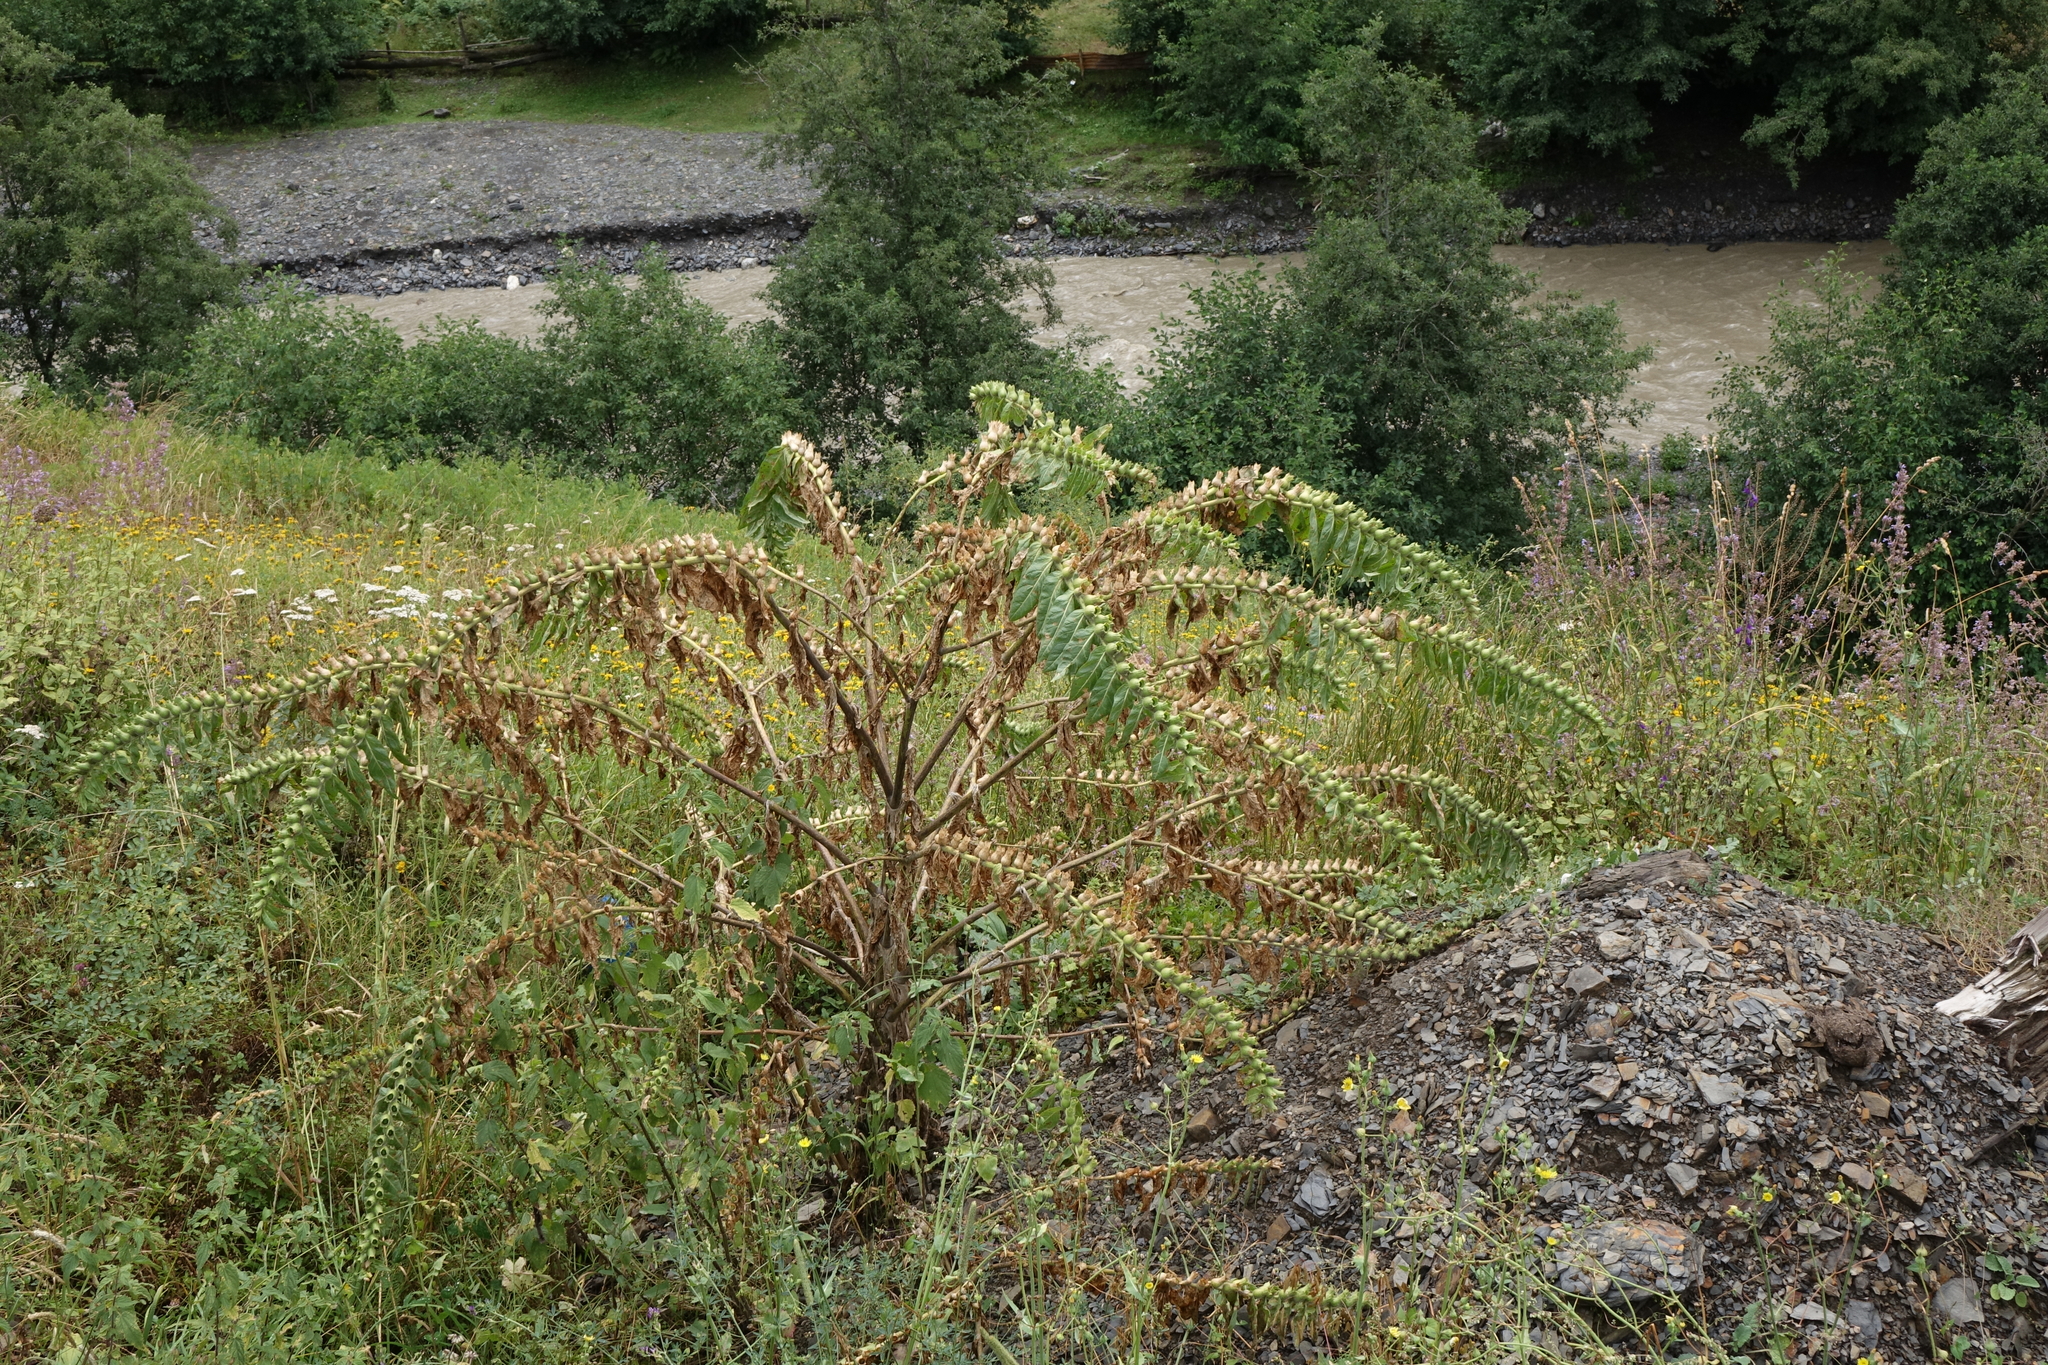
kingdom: Plantae
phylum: Tracheophyta
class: Magnoliopsida
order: Solanales
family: Solanaceae
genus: Hyoscyamus
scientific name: Hyoscyamus niger
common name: Henbane
